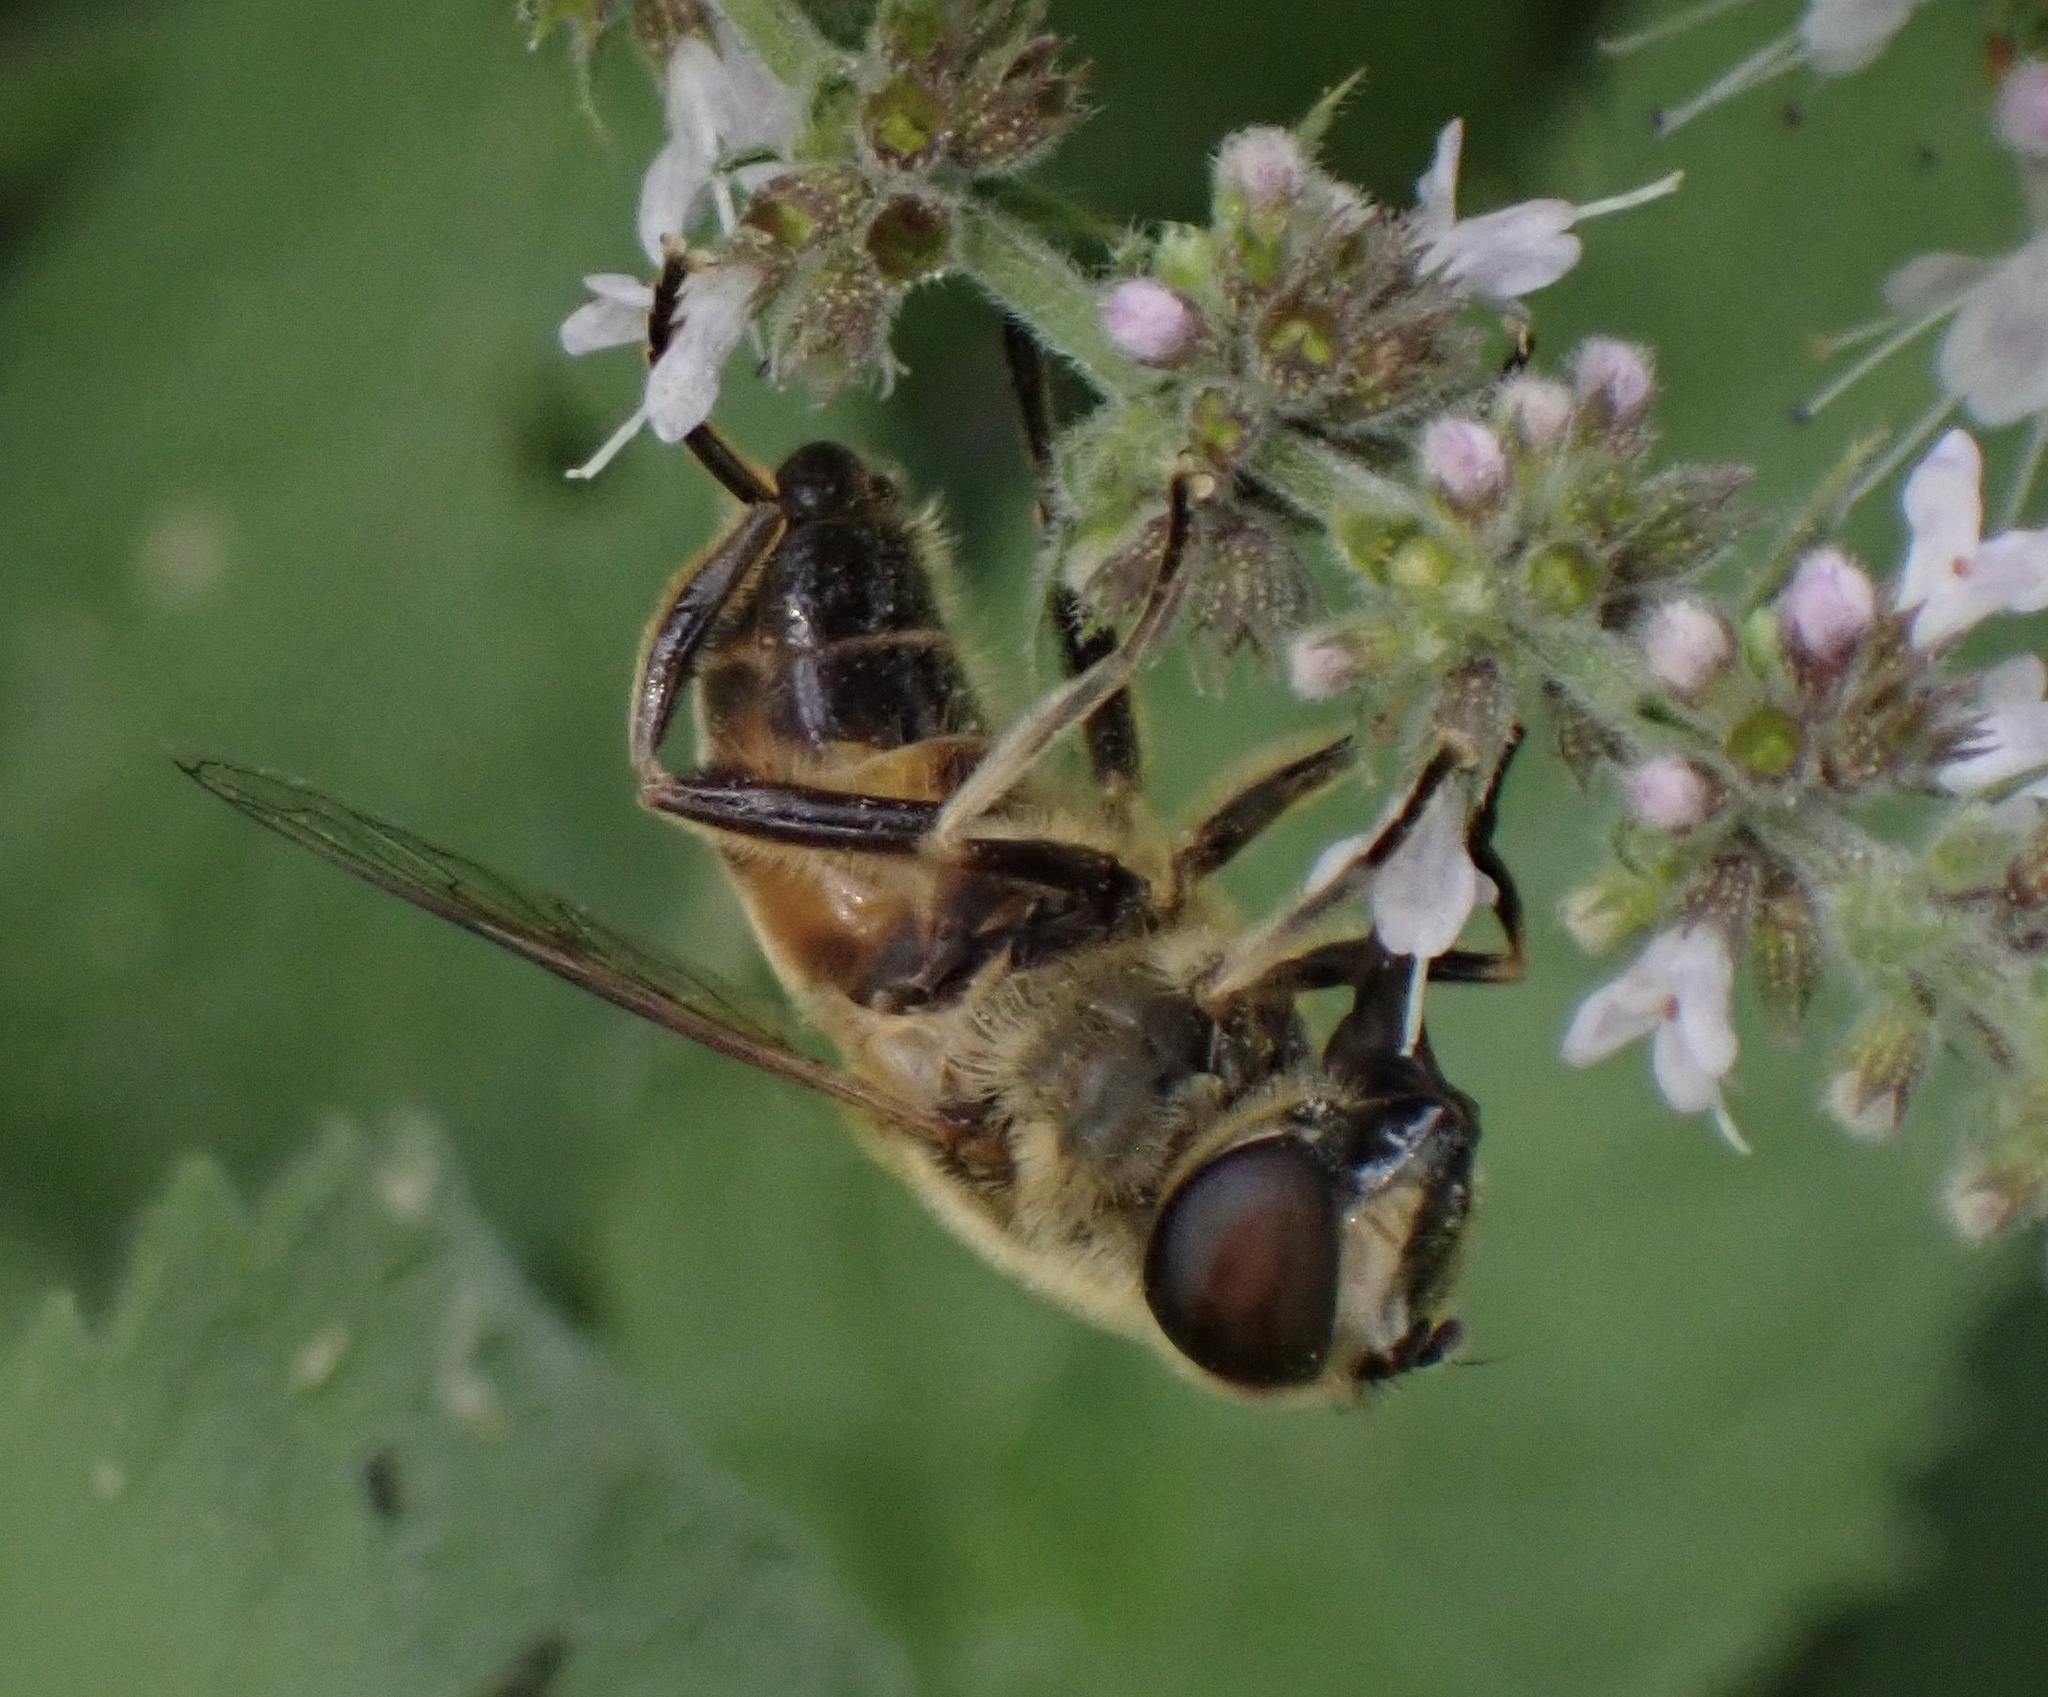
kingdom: Animalia
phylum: Arthropoda
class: Insecta
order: Diptera
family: Syrphidae
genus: Eristalis
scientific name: Eristalis tenax
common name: Drone fly
